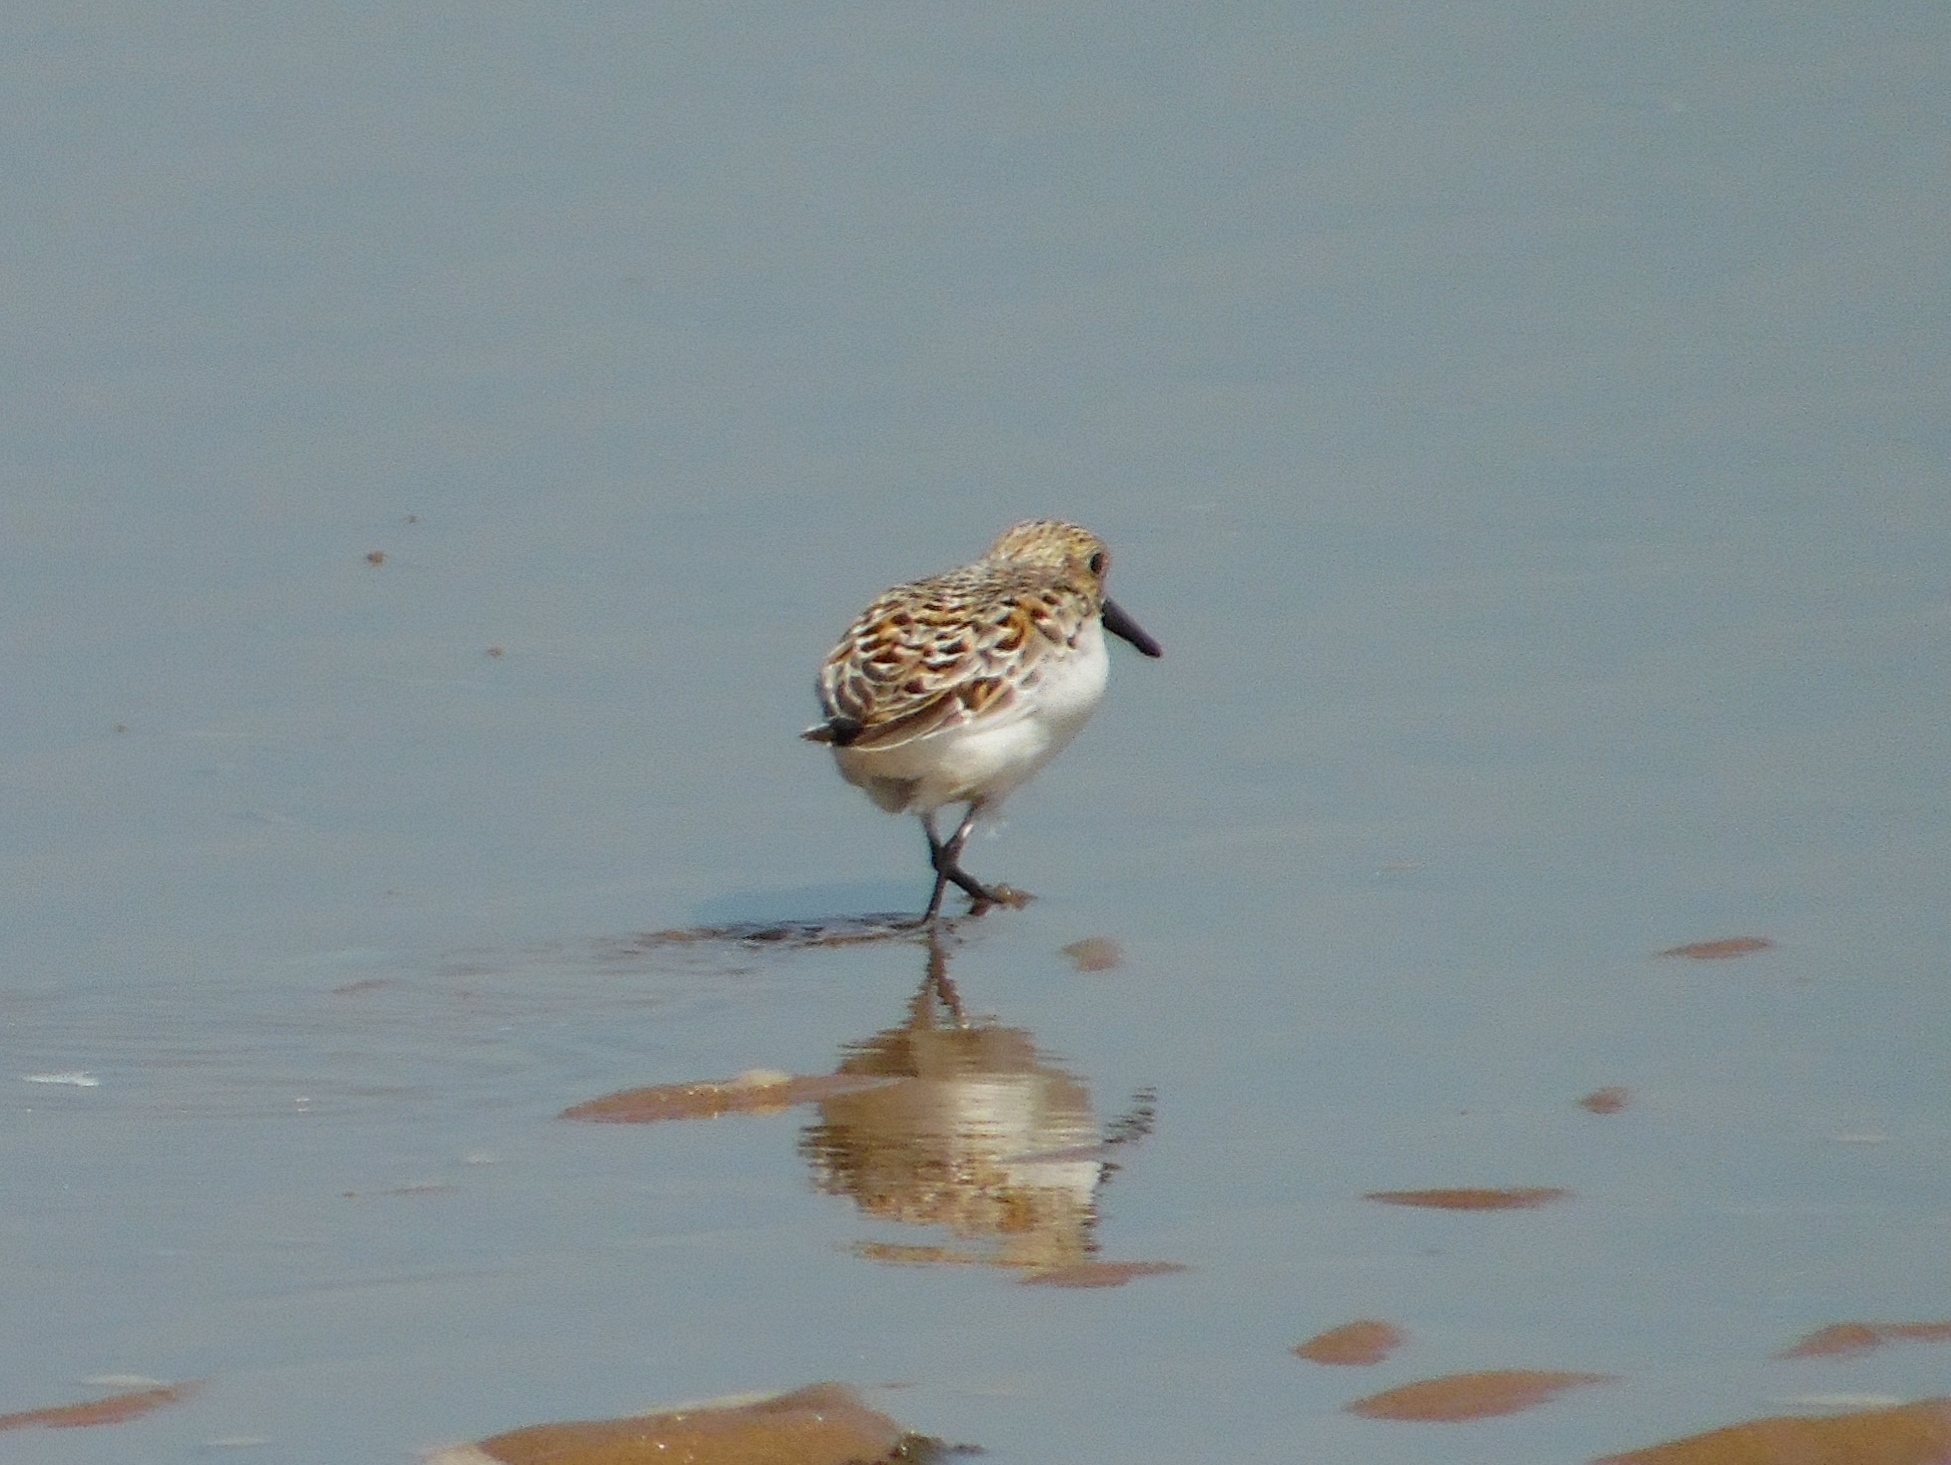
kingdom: Animalia
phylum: Chordata
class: Aves
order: Charadriiformes
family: Scolopacidae
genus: Calidris
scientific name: Calidris alba
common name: Sanderling
